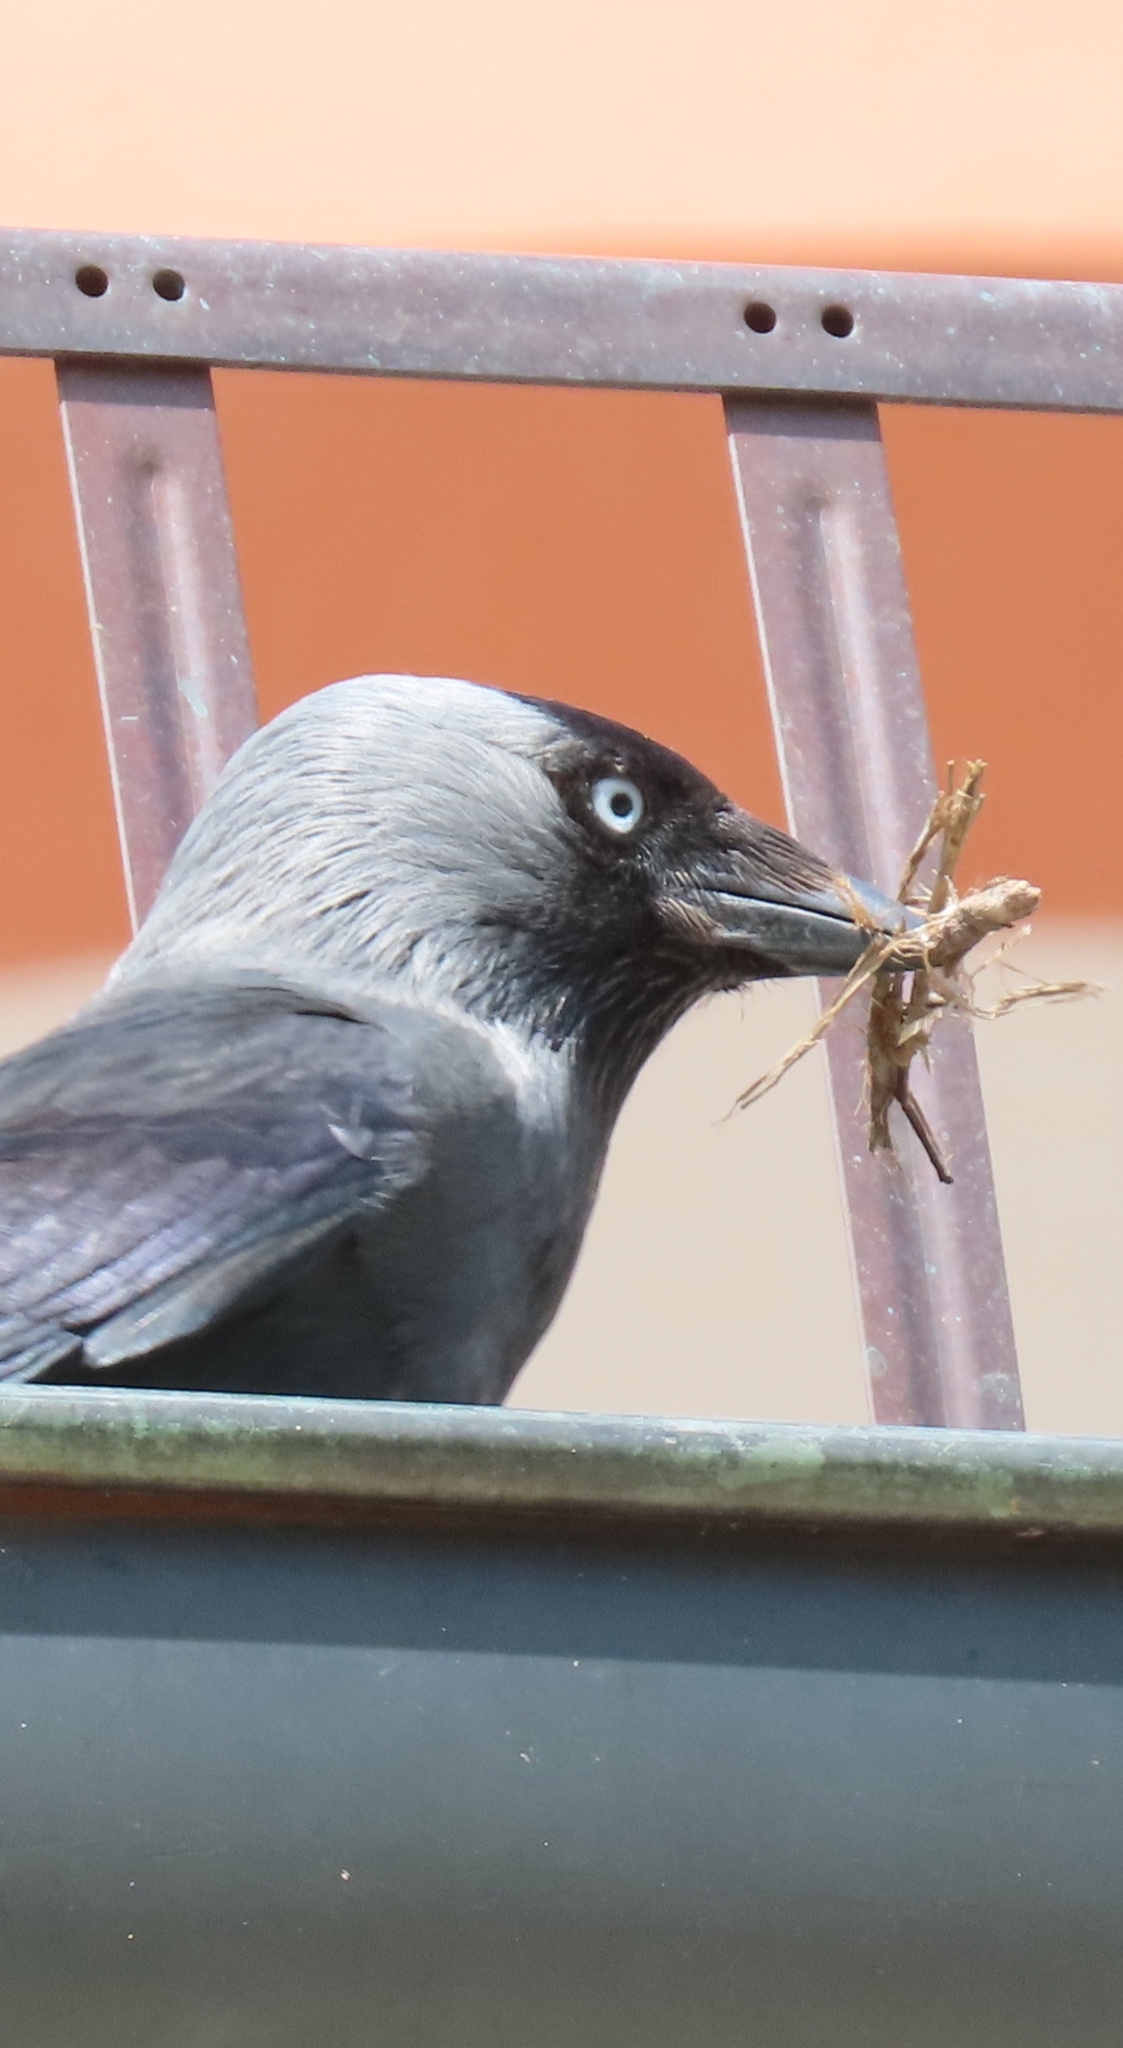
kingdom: Animalia
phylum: Chordata
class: Aves
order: Passeriformes
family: Corvidae
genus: Coloeus
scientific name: Coloeus monedula
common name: Western jackdaw
